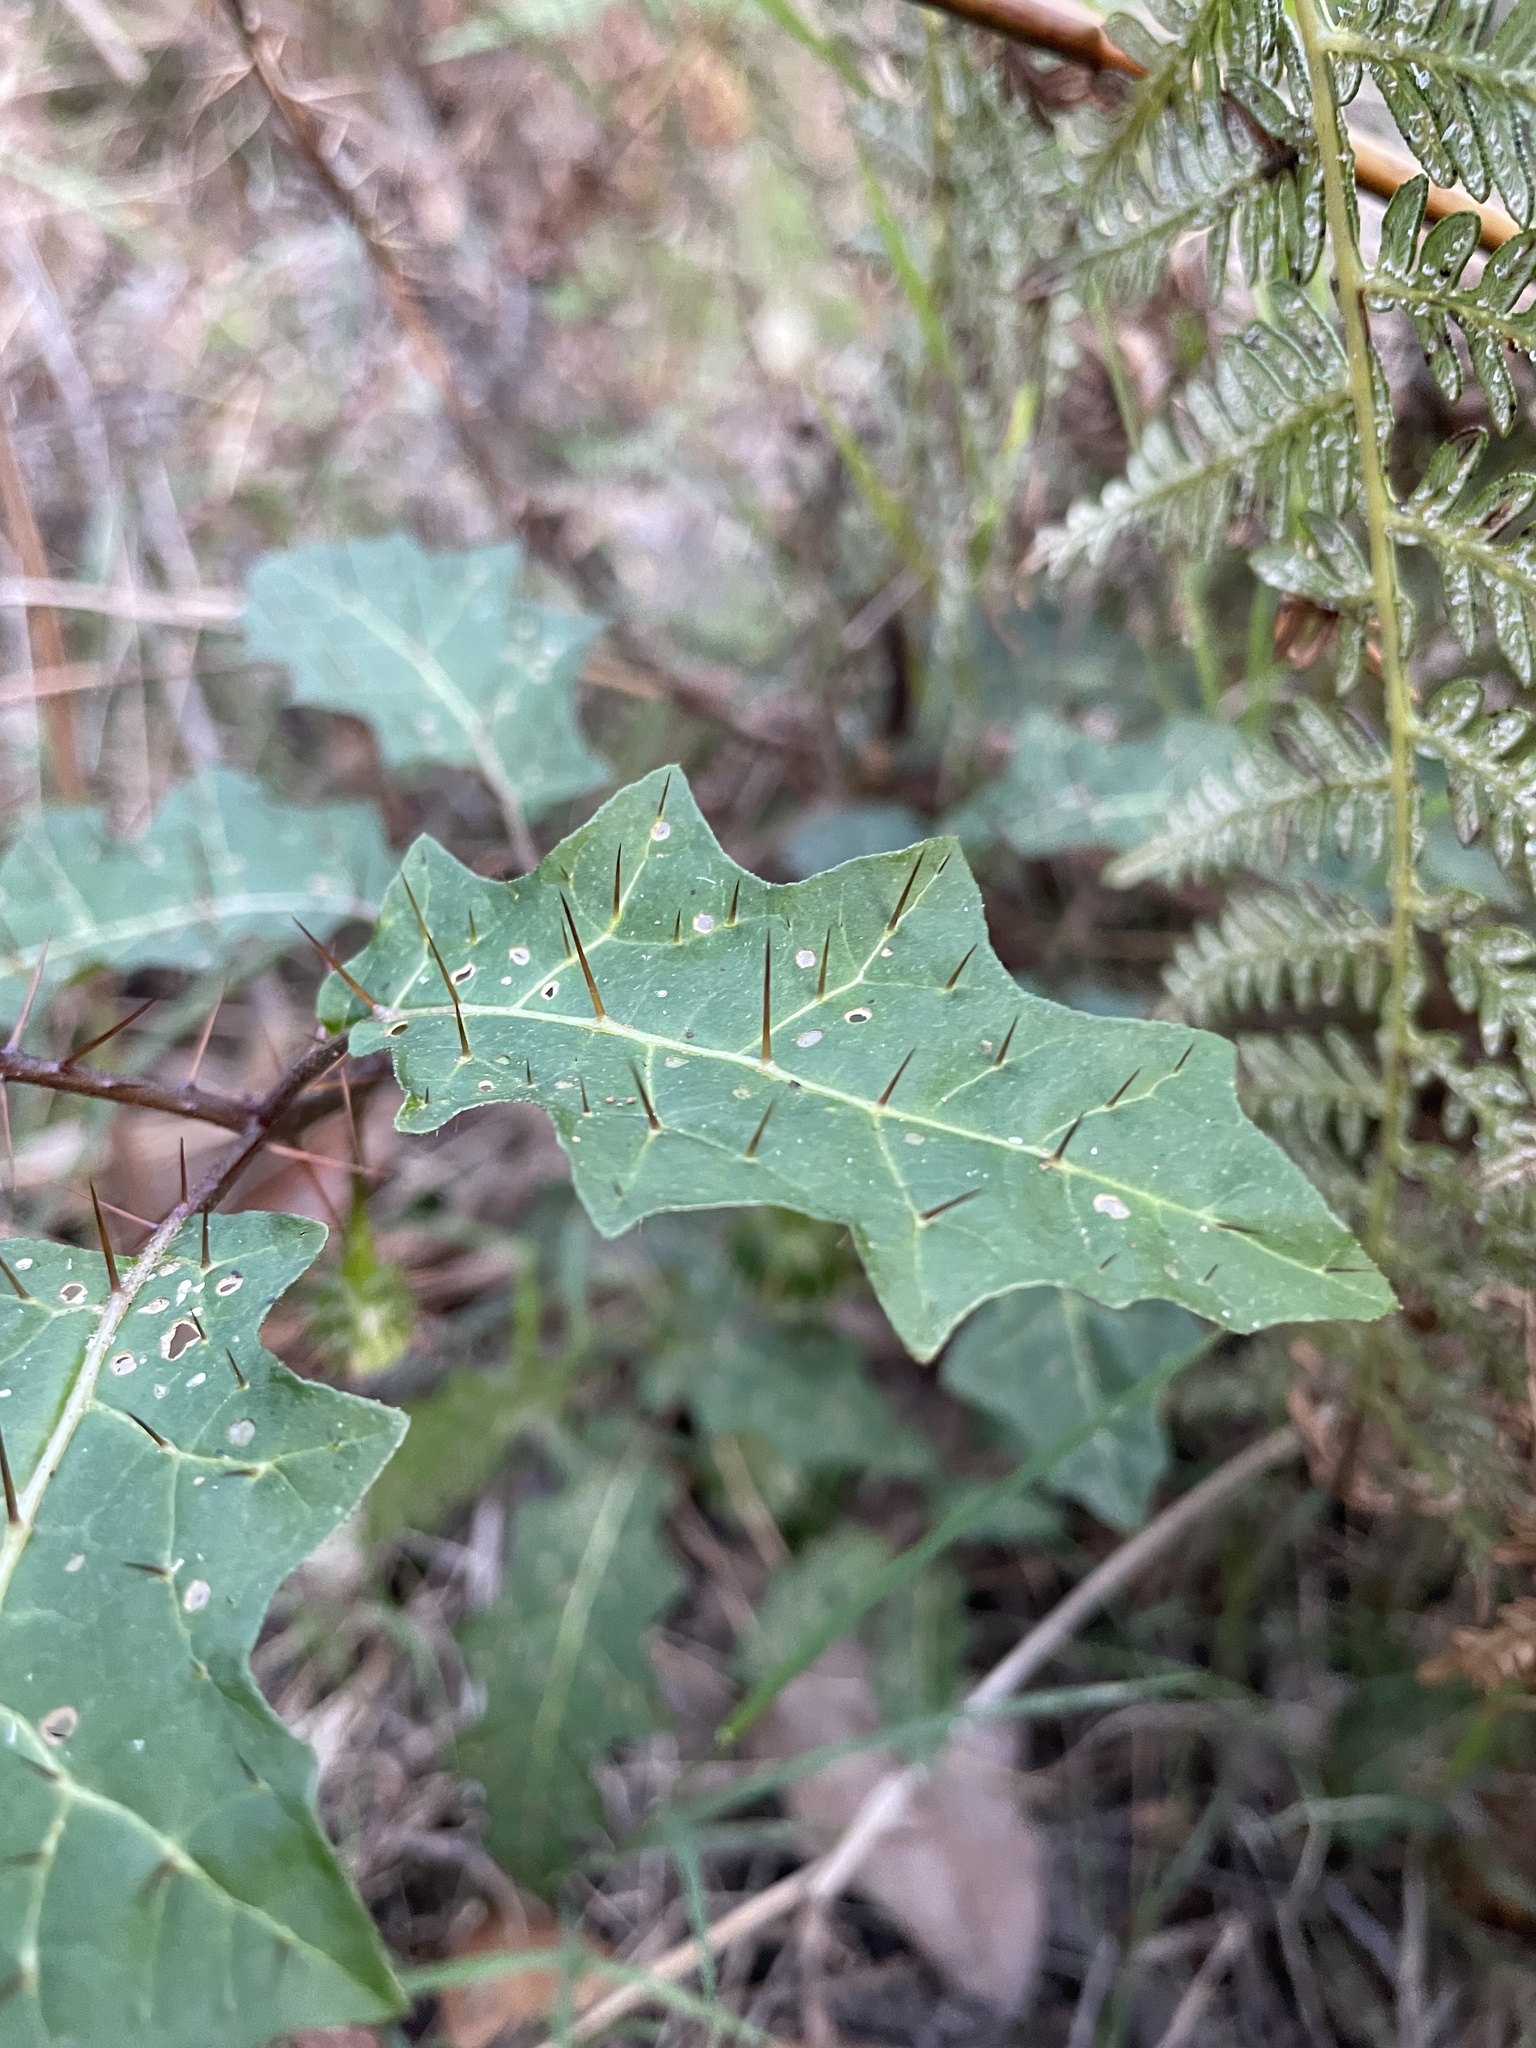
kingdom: Plantae
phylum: Tracheophyta
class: Magnoliopsida
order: Solanales
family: Solanaceae
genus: Solanum
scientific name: Solanum prinophyllum
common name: Forest nightshade
